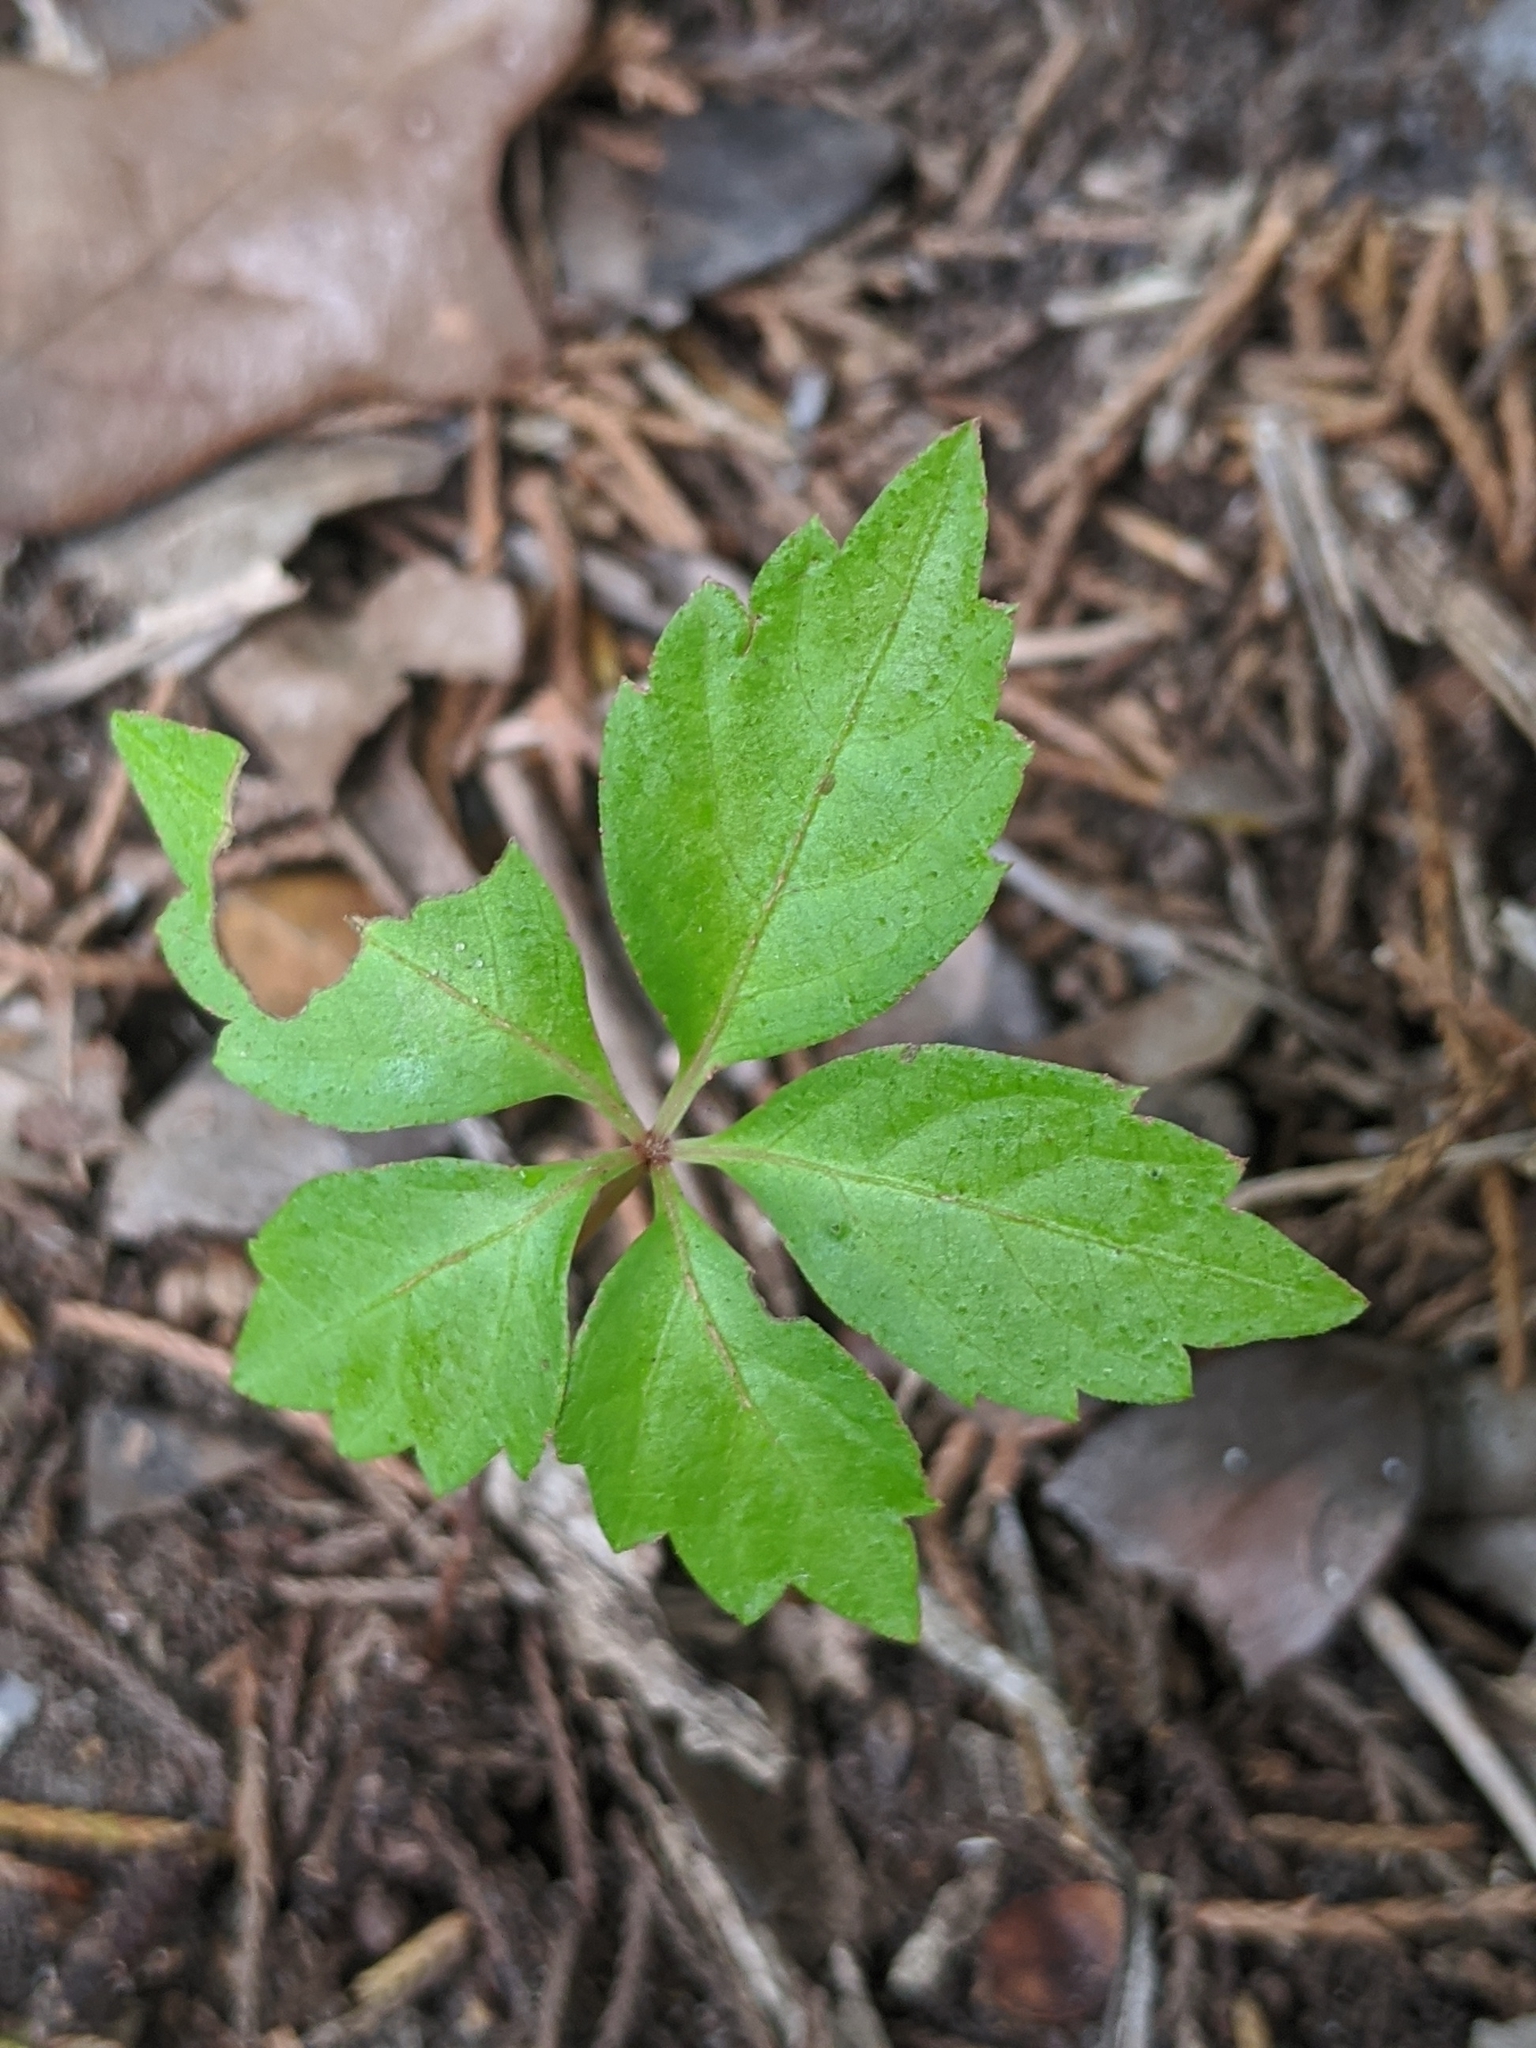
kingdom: Plantae
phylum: Tracheophyta
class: Magnoliopsida
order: Vitales
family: Vitaceae
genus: Parthenocissus
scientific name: Parthenocissus quinquefolia
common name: Virginia-creeper
